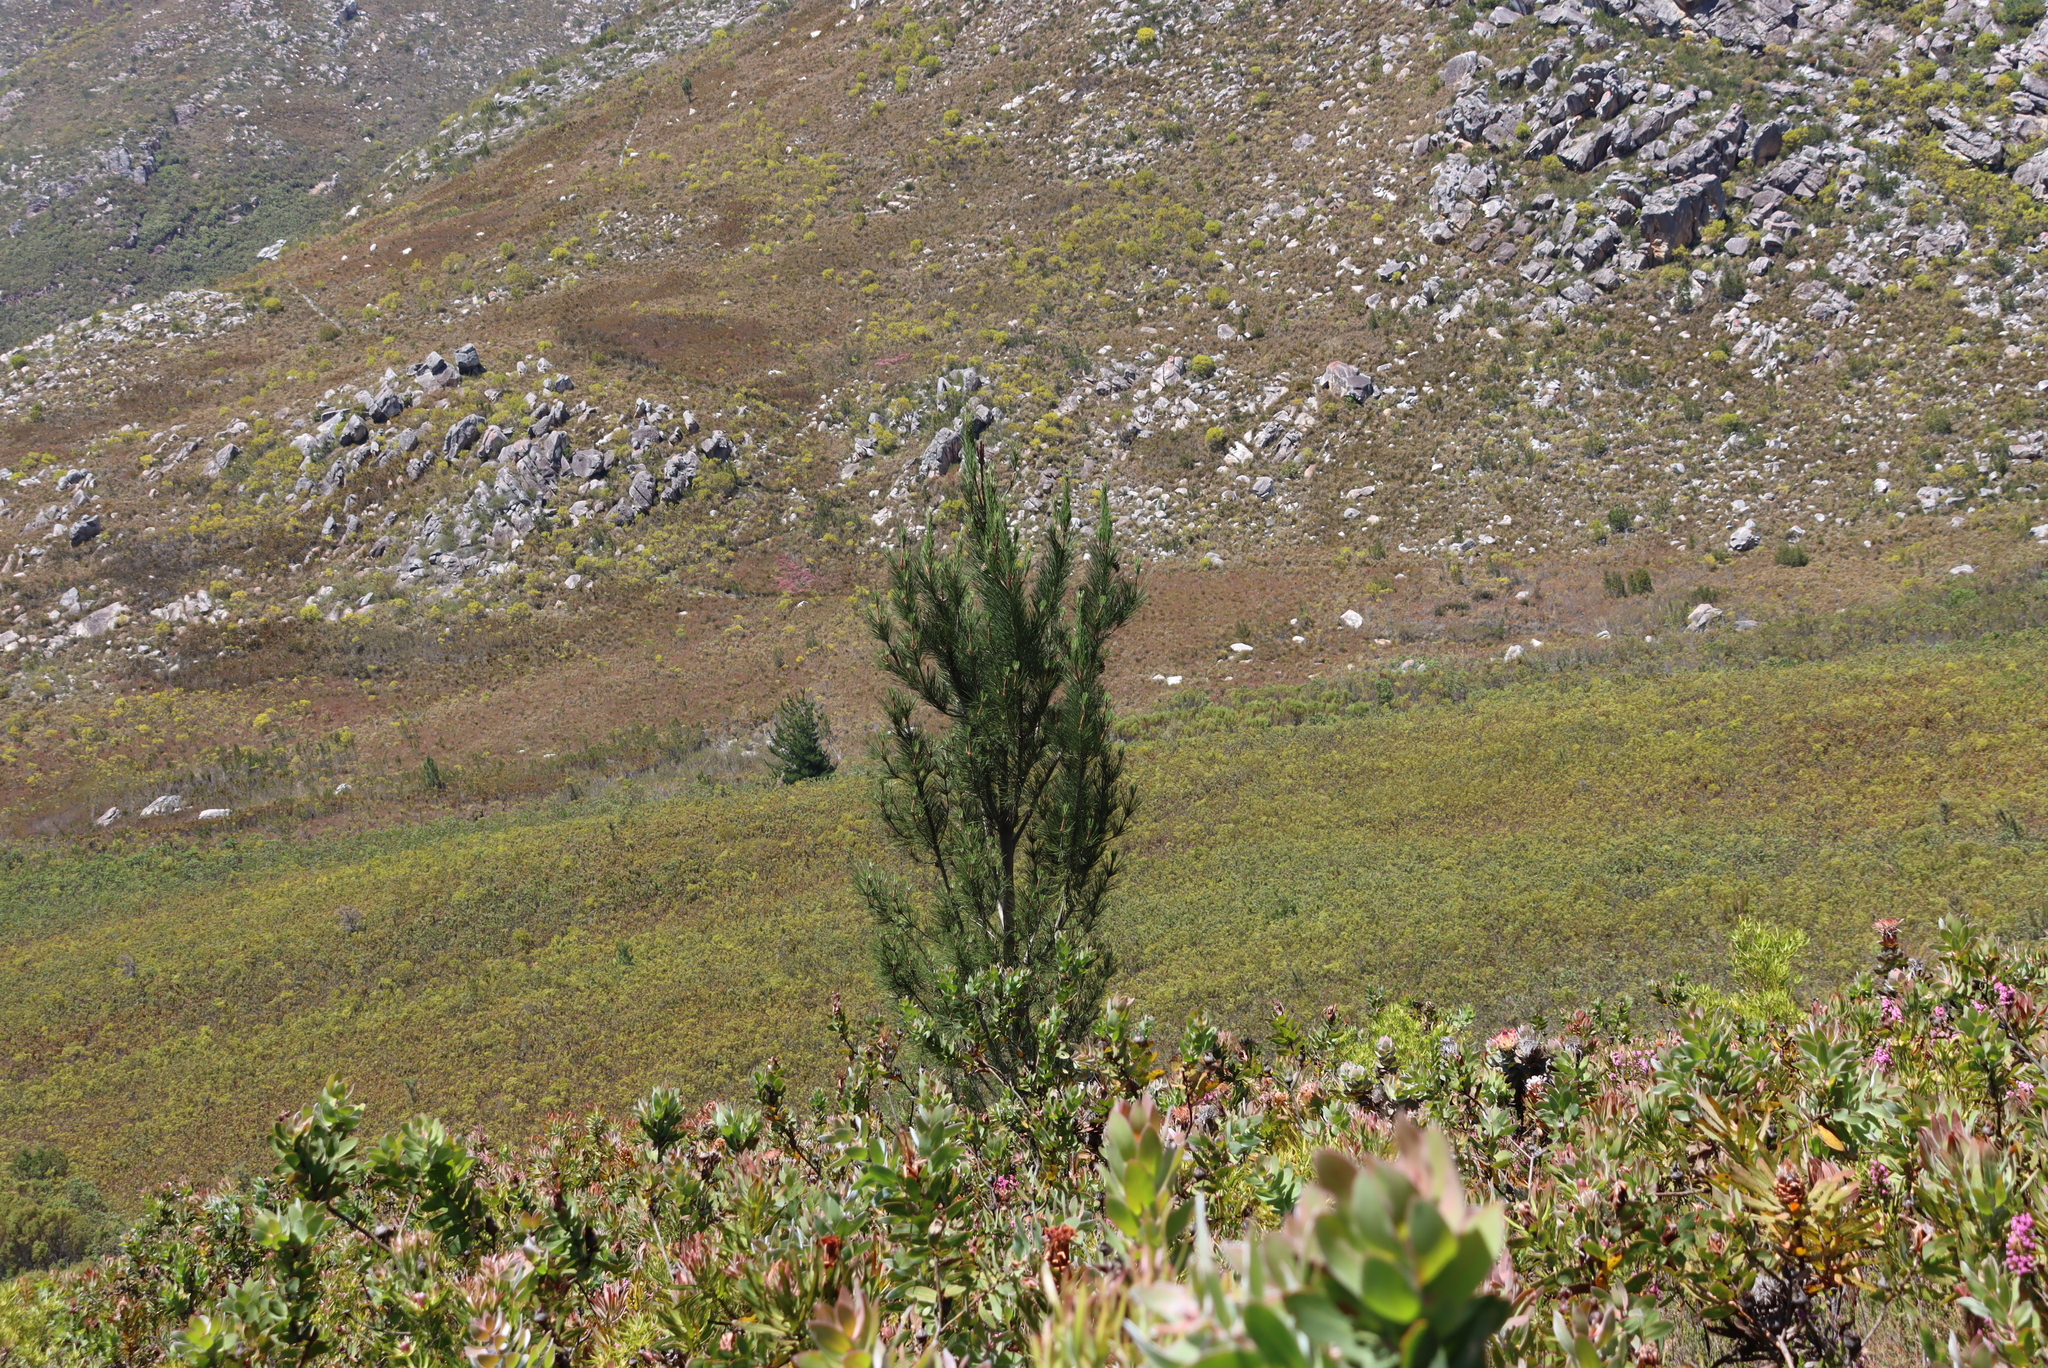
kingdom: Plantae
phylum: Tracheophyta
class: Pinopsida
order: Pinales
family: Pinaceae
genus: Pinus
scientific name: Pinus radiata
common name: Monterey pine
